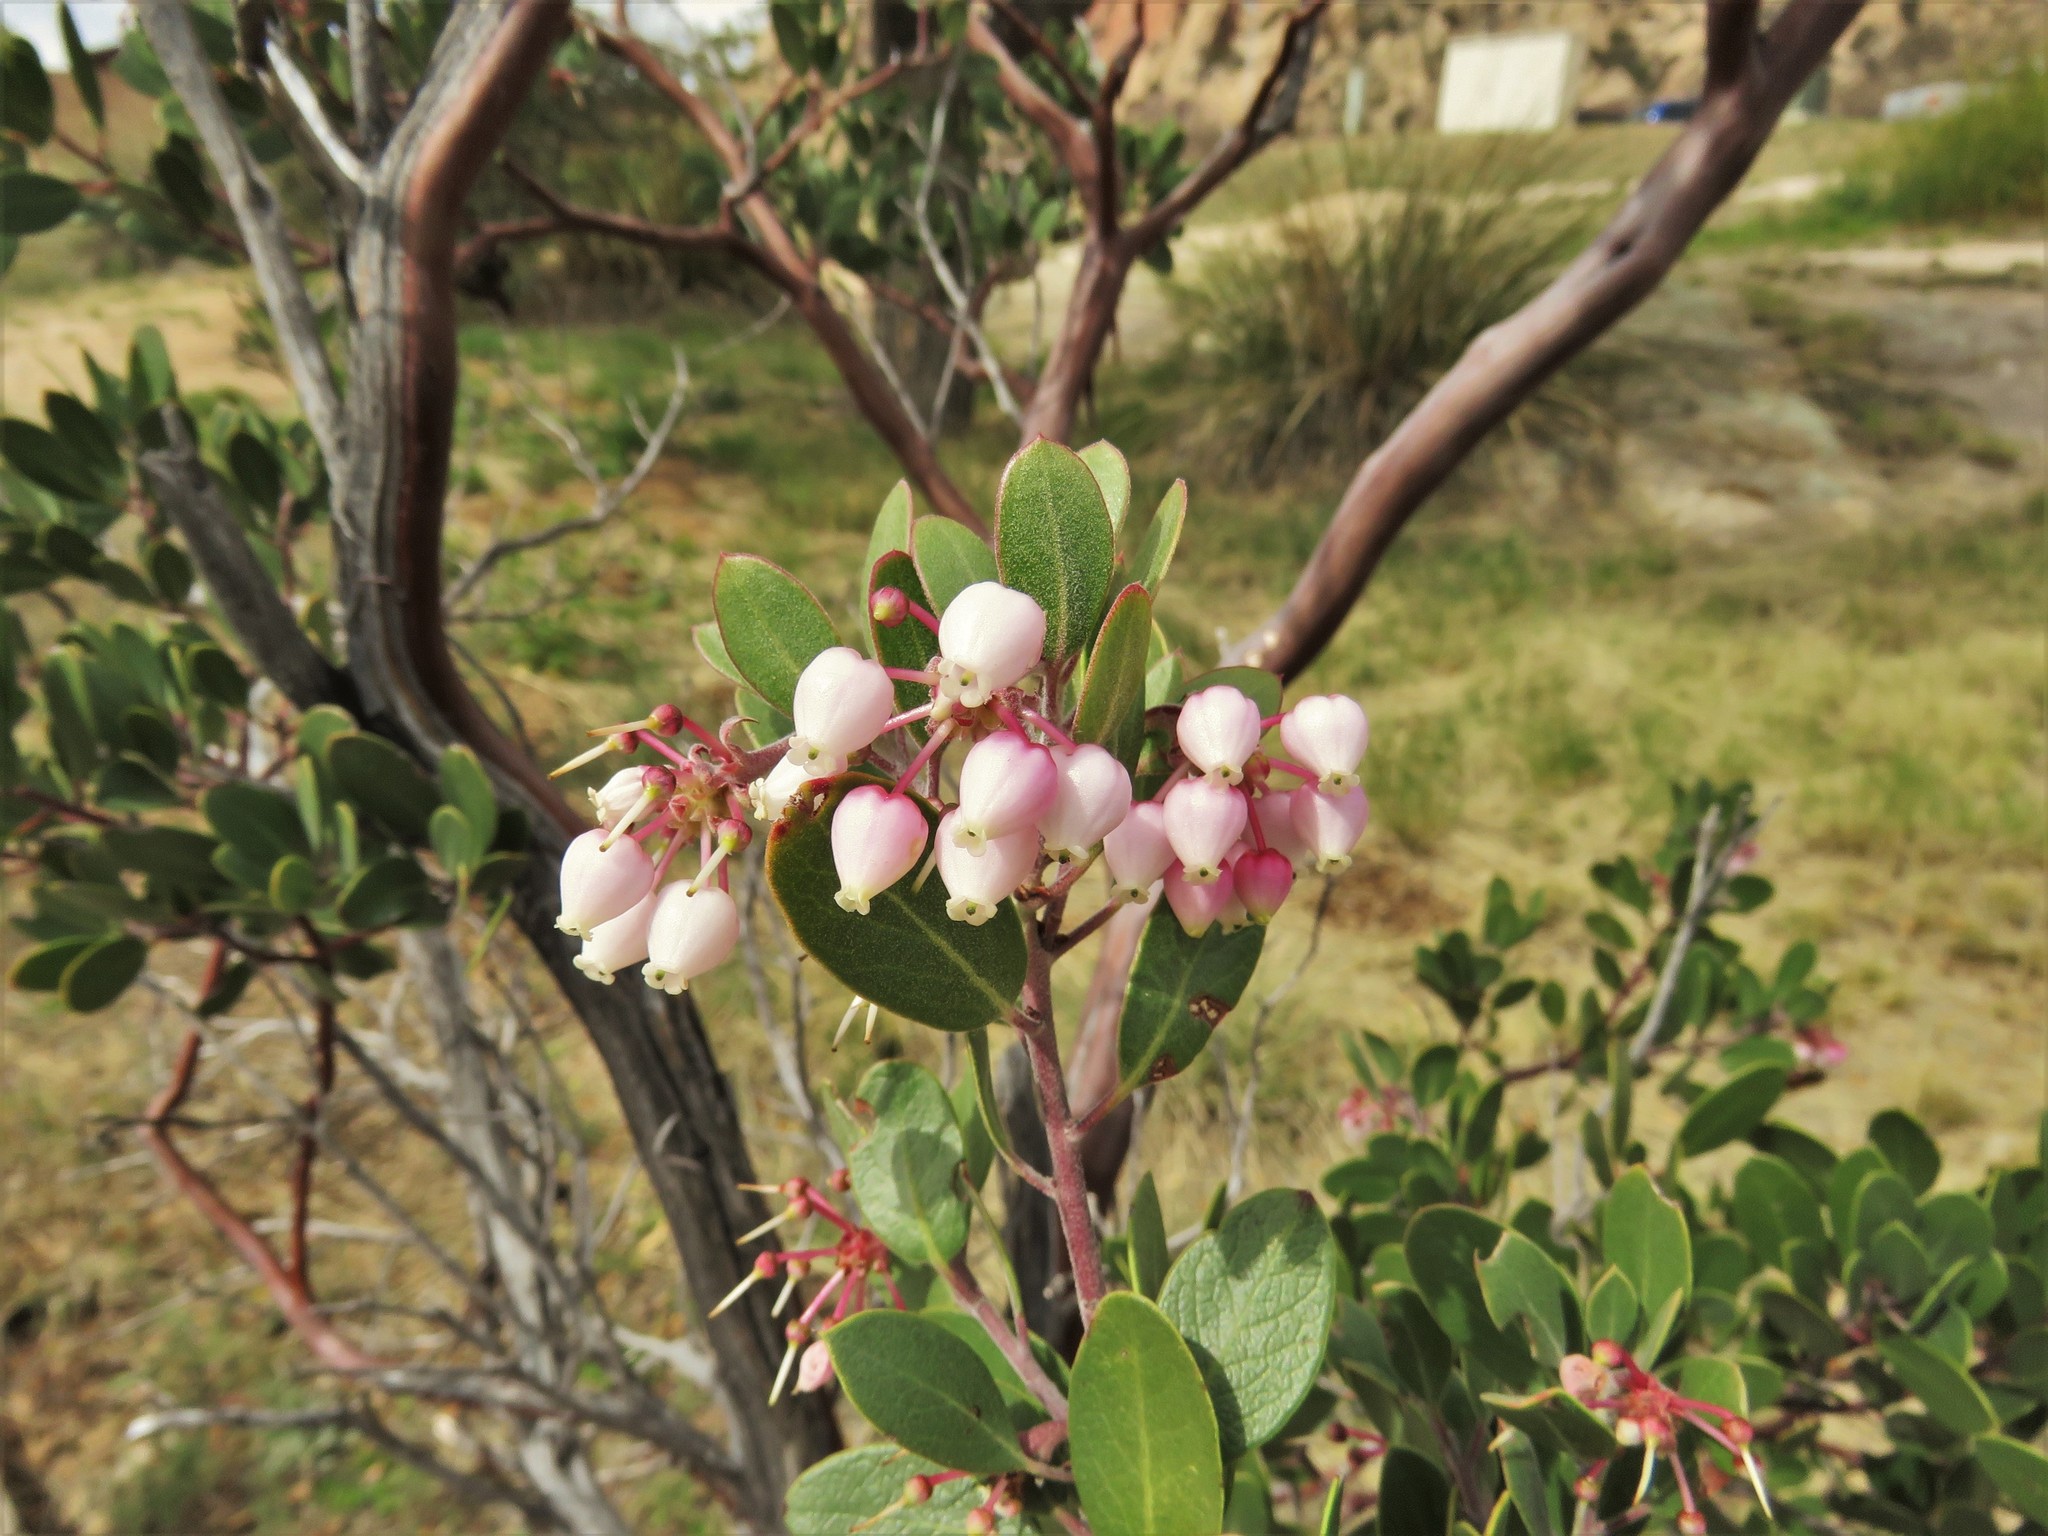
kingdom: Plantae
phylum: Tracheophyta
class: Magnoliopsida
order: Ericales
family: Ericaceae
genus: Arctostaphylos
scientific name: Arctostaphylos pungens
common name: Mexican manzanita
